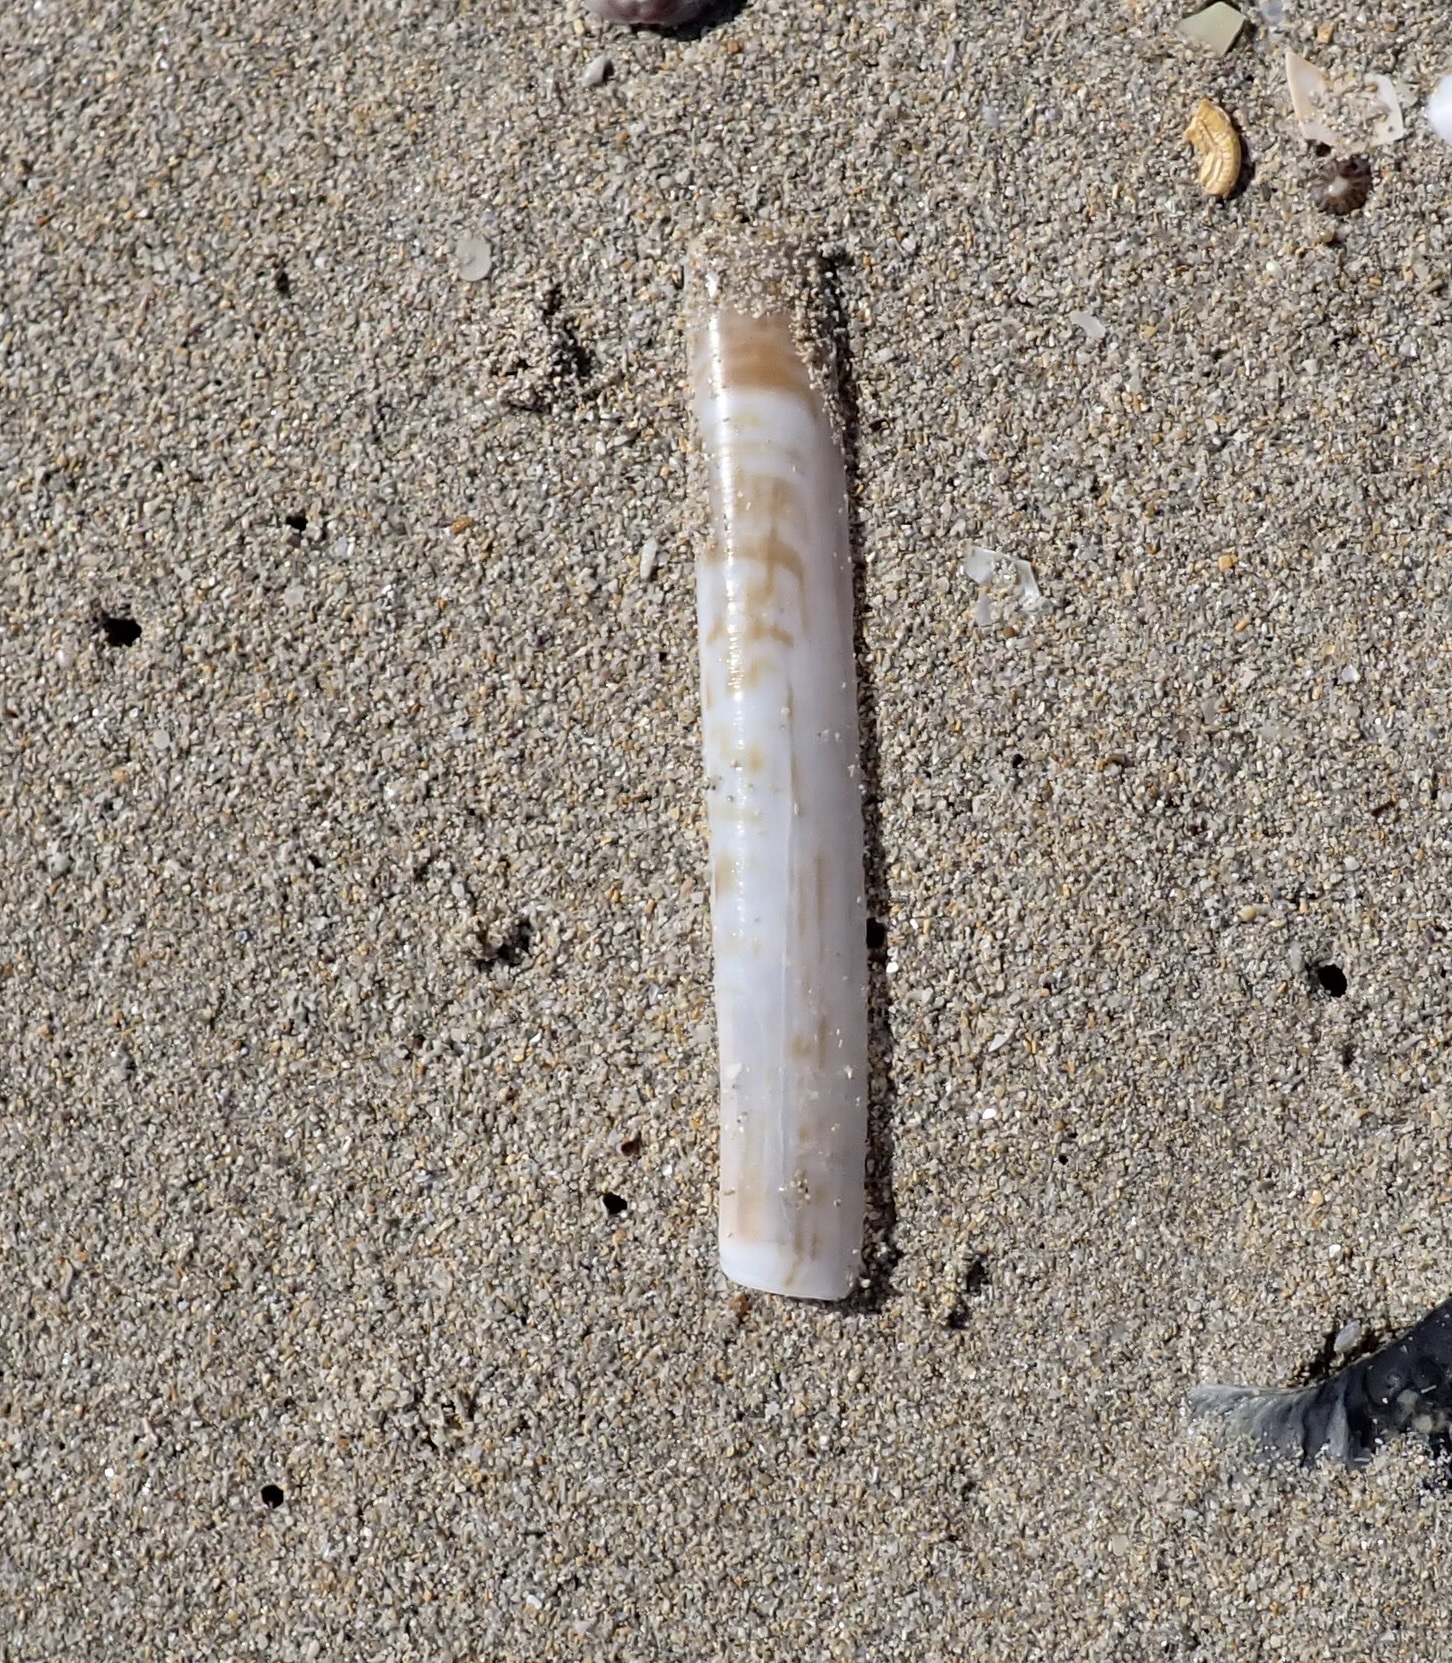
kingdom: Animalia
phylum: Mollusca
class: Bivalvia
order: Adapedonta
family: Solenidae
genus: Solen
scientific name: Solen vaginoides
